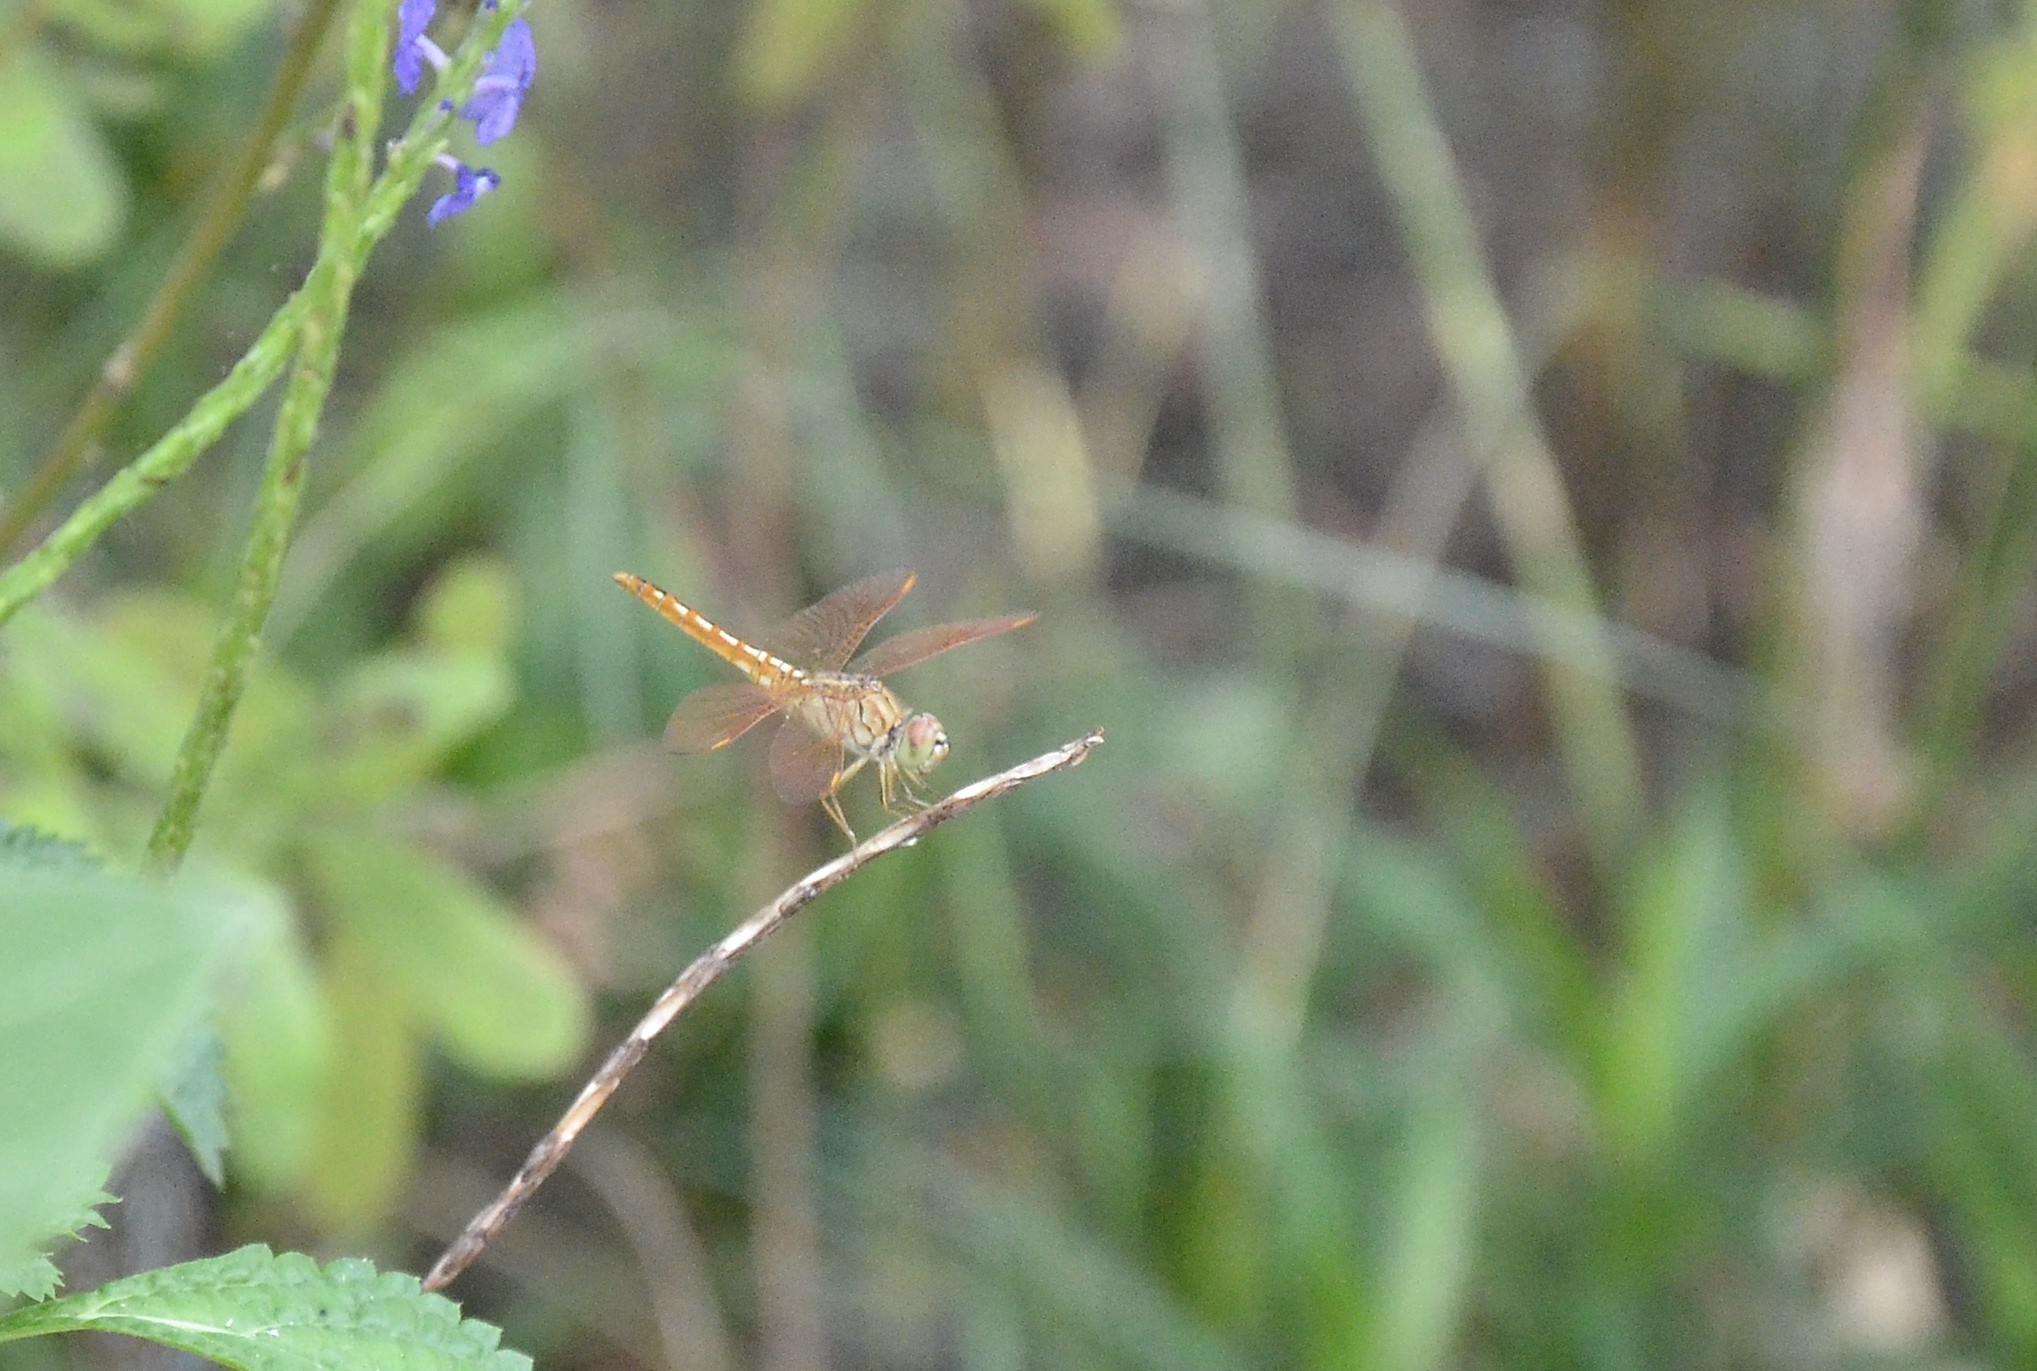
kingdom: Animalia
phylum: Arthropoda
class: Insecta
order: Odonata
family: Libellulidae
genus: Brachythemis
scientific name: Brachythemis contaminata
